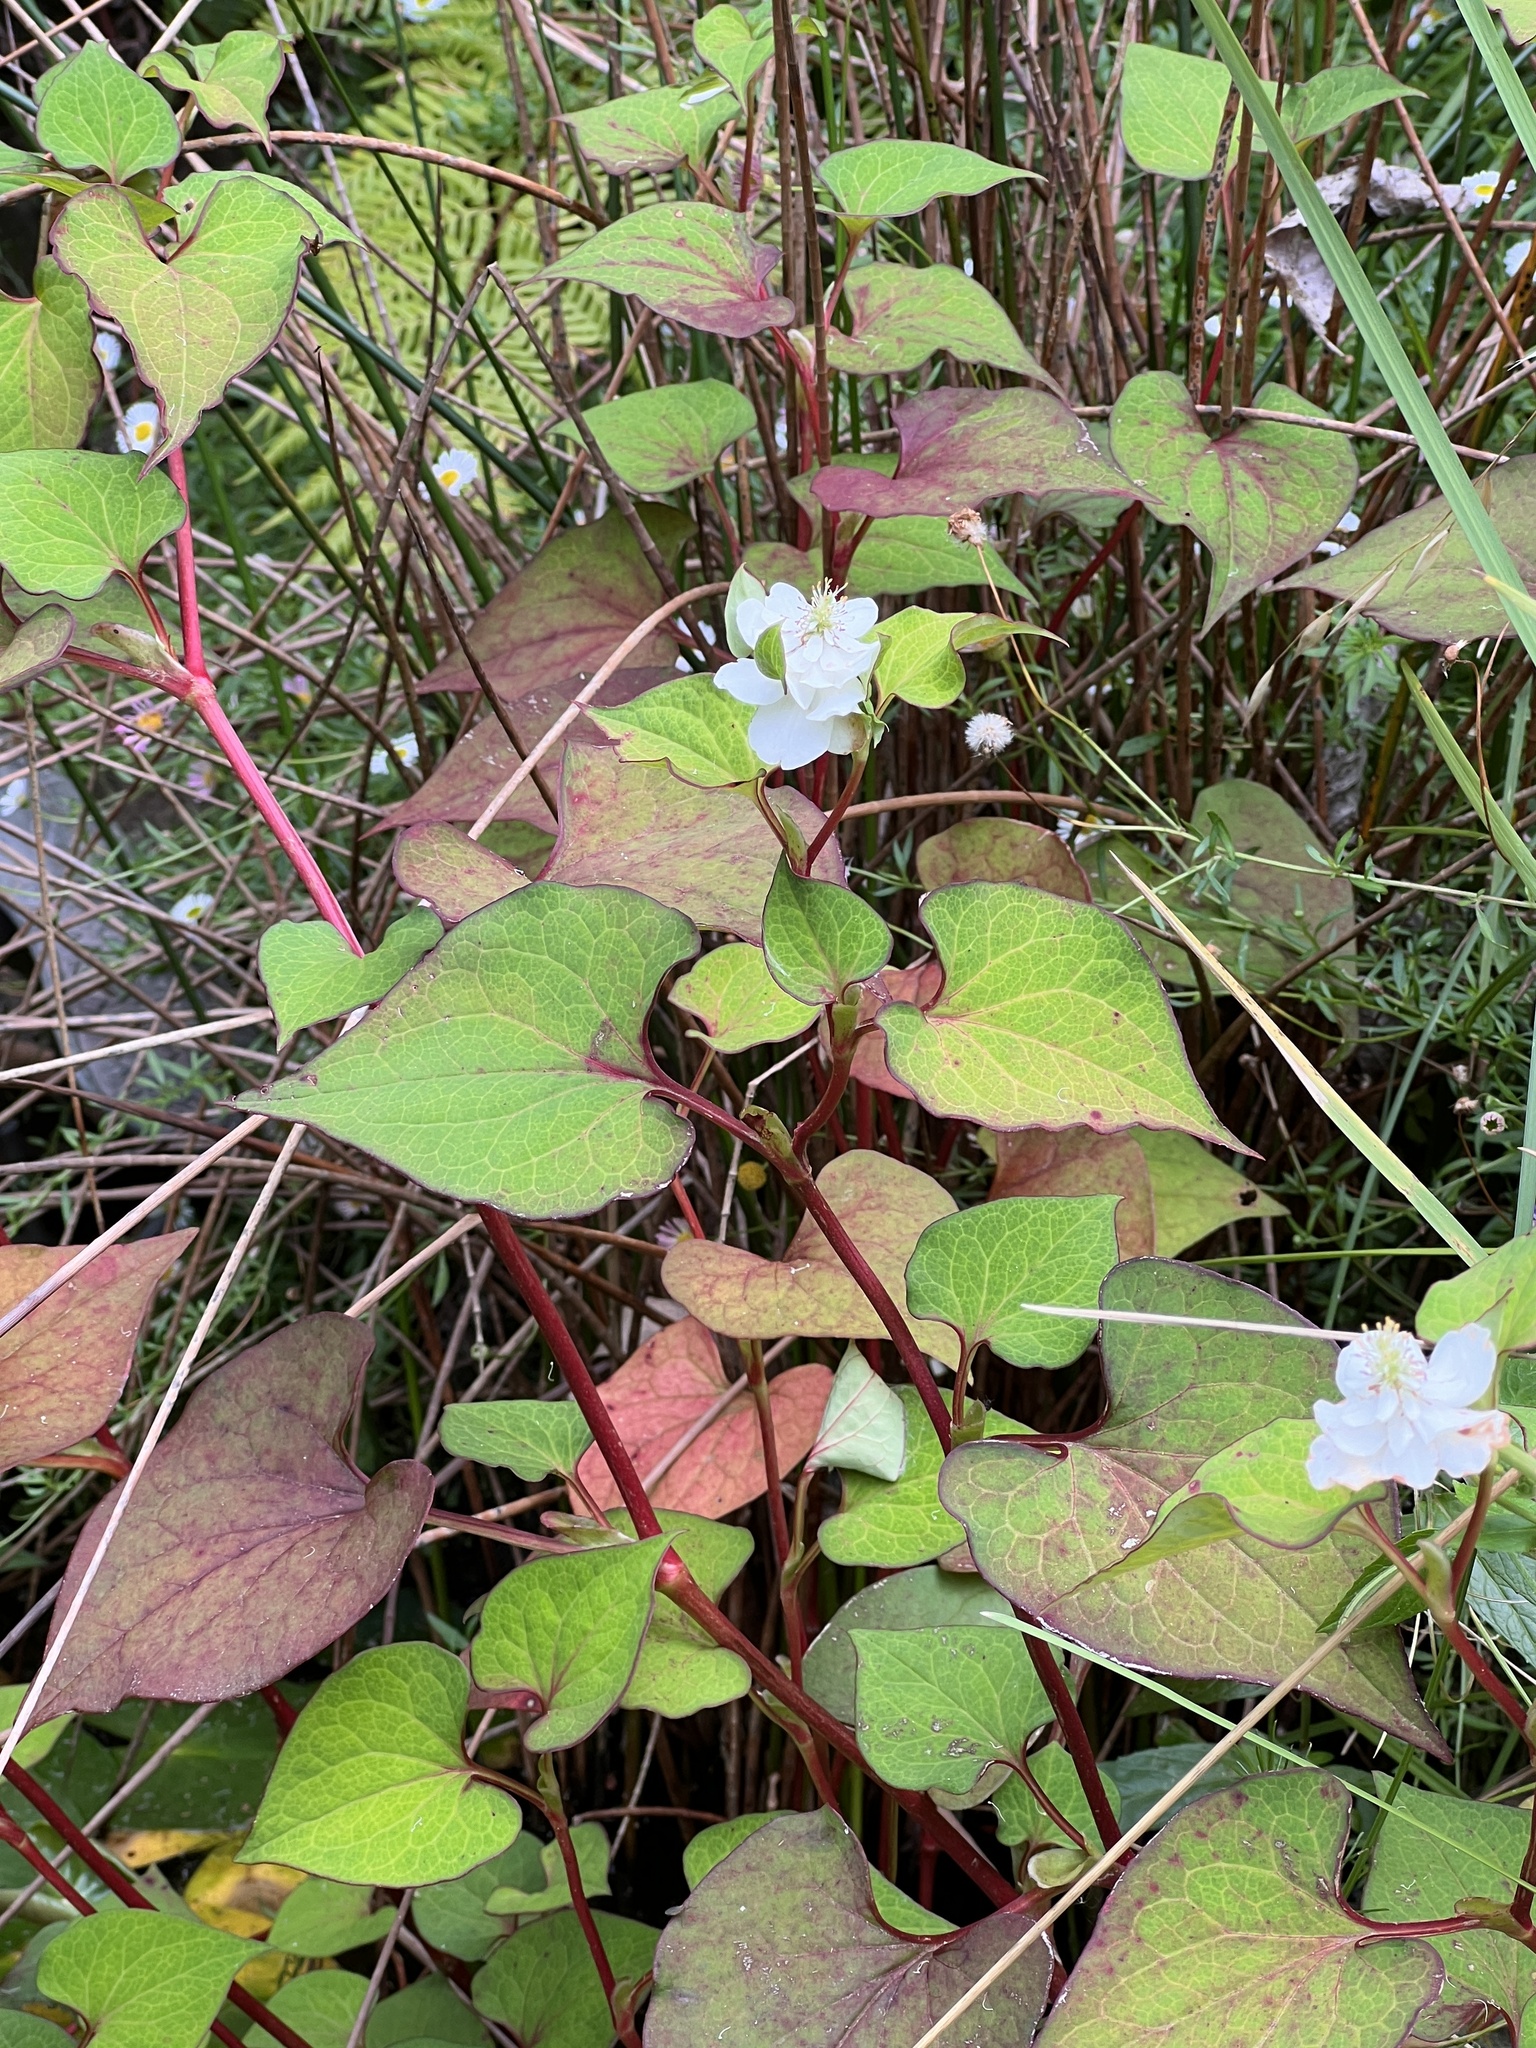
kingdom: Plantae
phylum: Tracheophyta
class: Magnoliopsida
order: Piperales
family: Saururaceae
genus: Houttuynia
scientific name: Houttuynia cordata
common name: Chameleon
